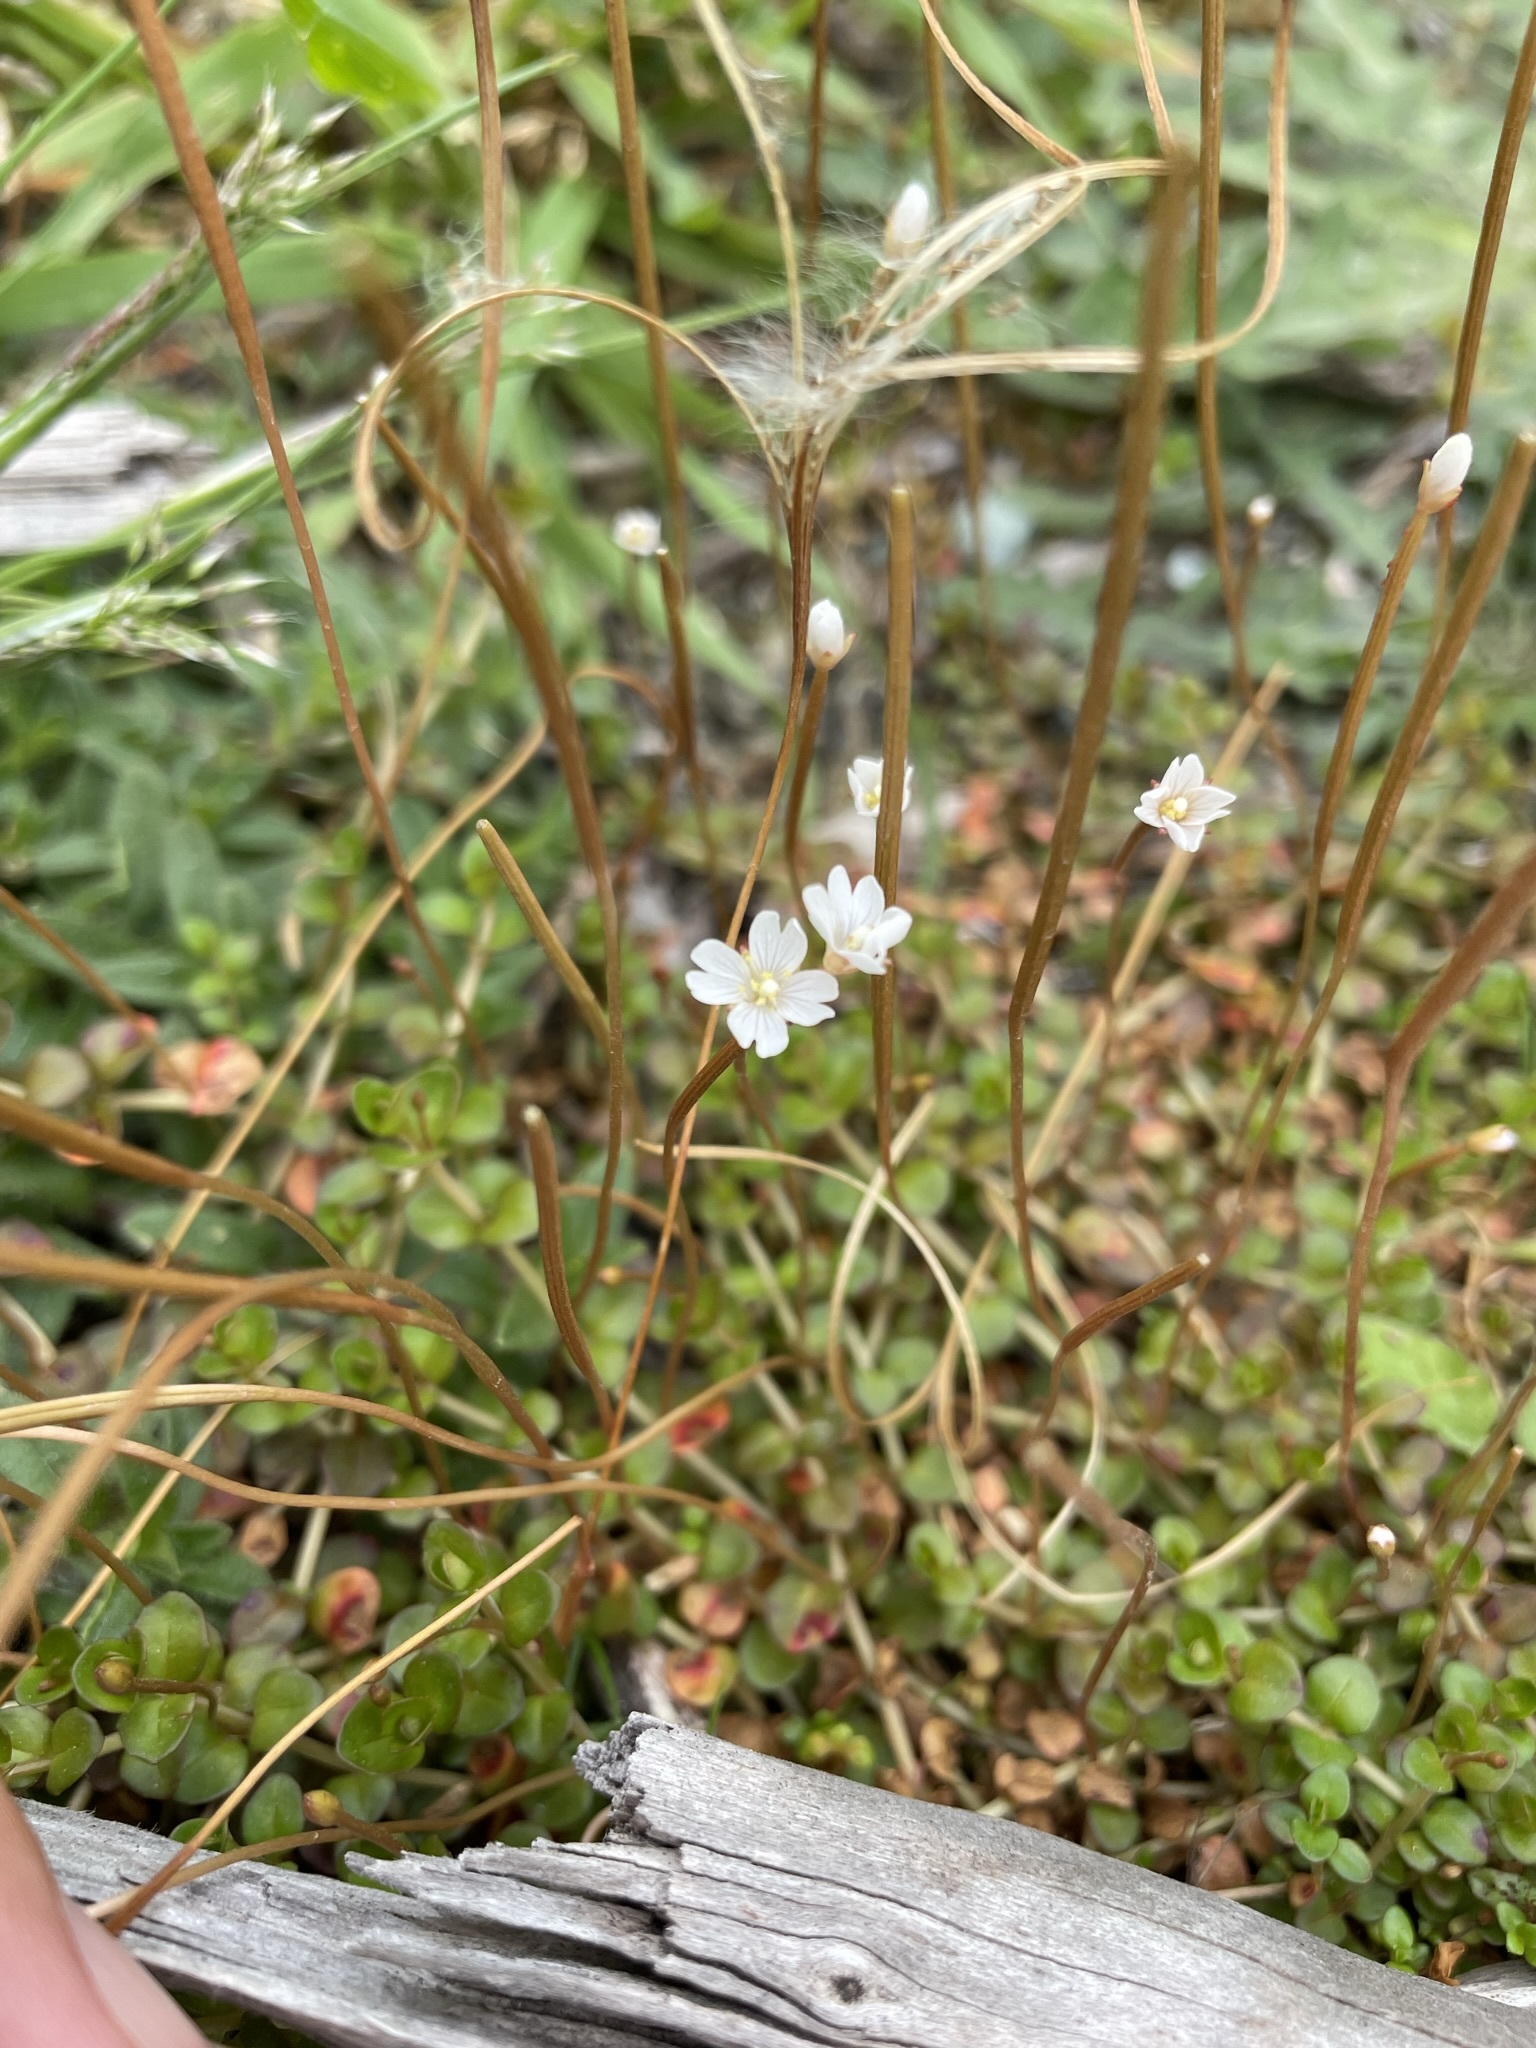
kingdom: Plantae
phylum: Tracheophyta
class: Magnoliopsida
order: Myrtales
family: Onagraceae
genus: Epilobium
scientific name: Epilobium brunnescens
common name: New zealand willowherb
